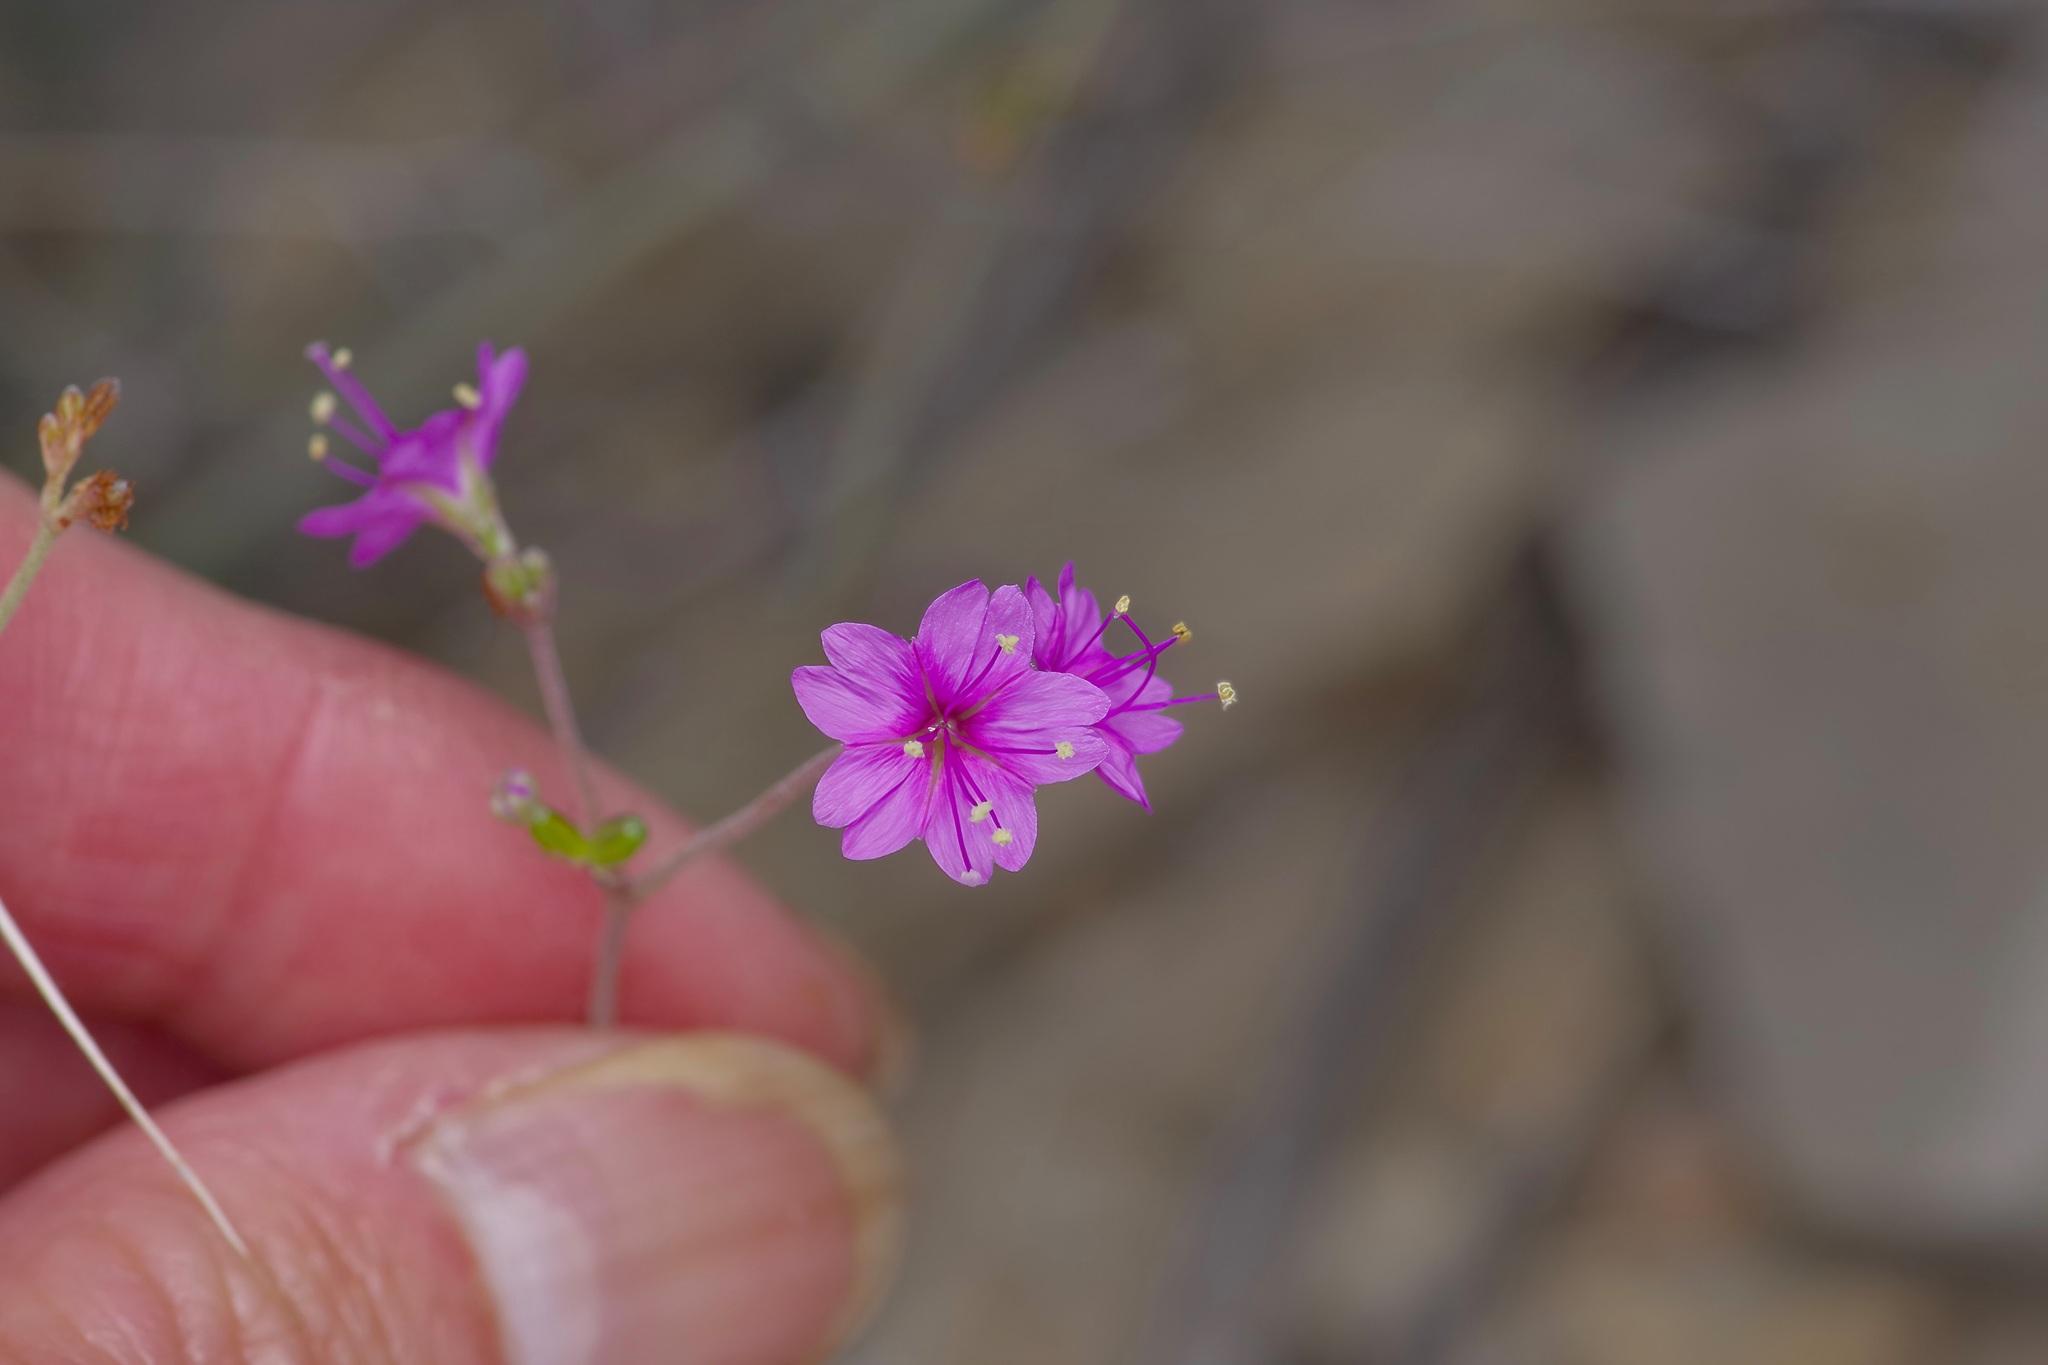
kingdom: Plantae
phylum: Tracheophyta
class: Magnoliopsida
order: Caryophyllales
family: Nyctaginaceae
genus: Boerhavia
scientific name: Boerhavia linearifolia
